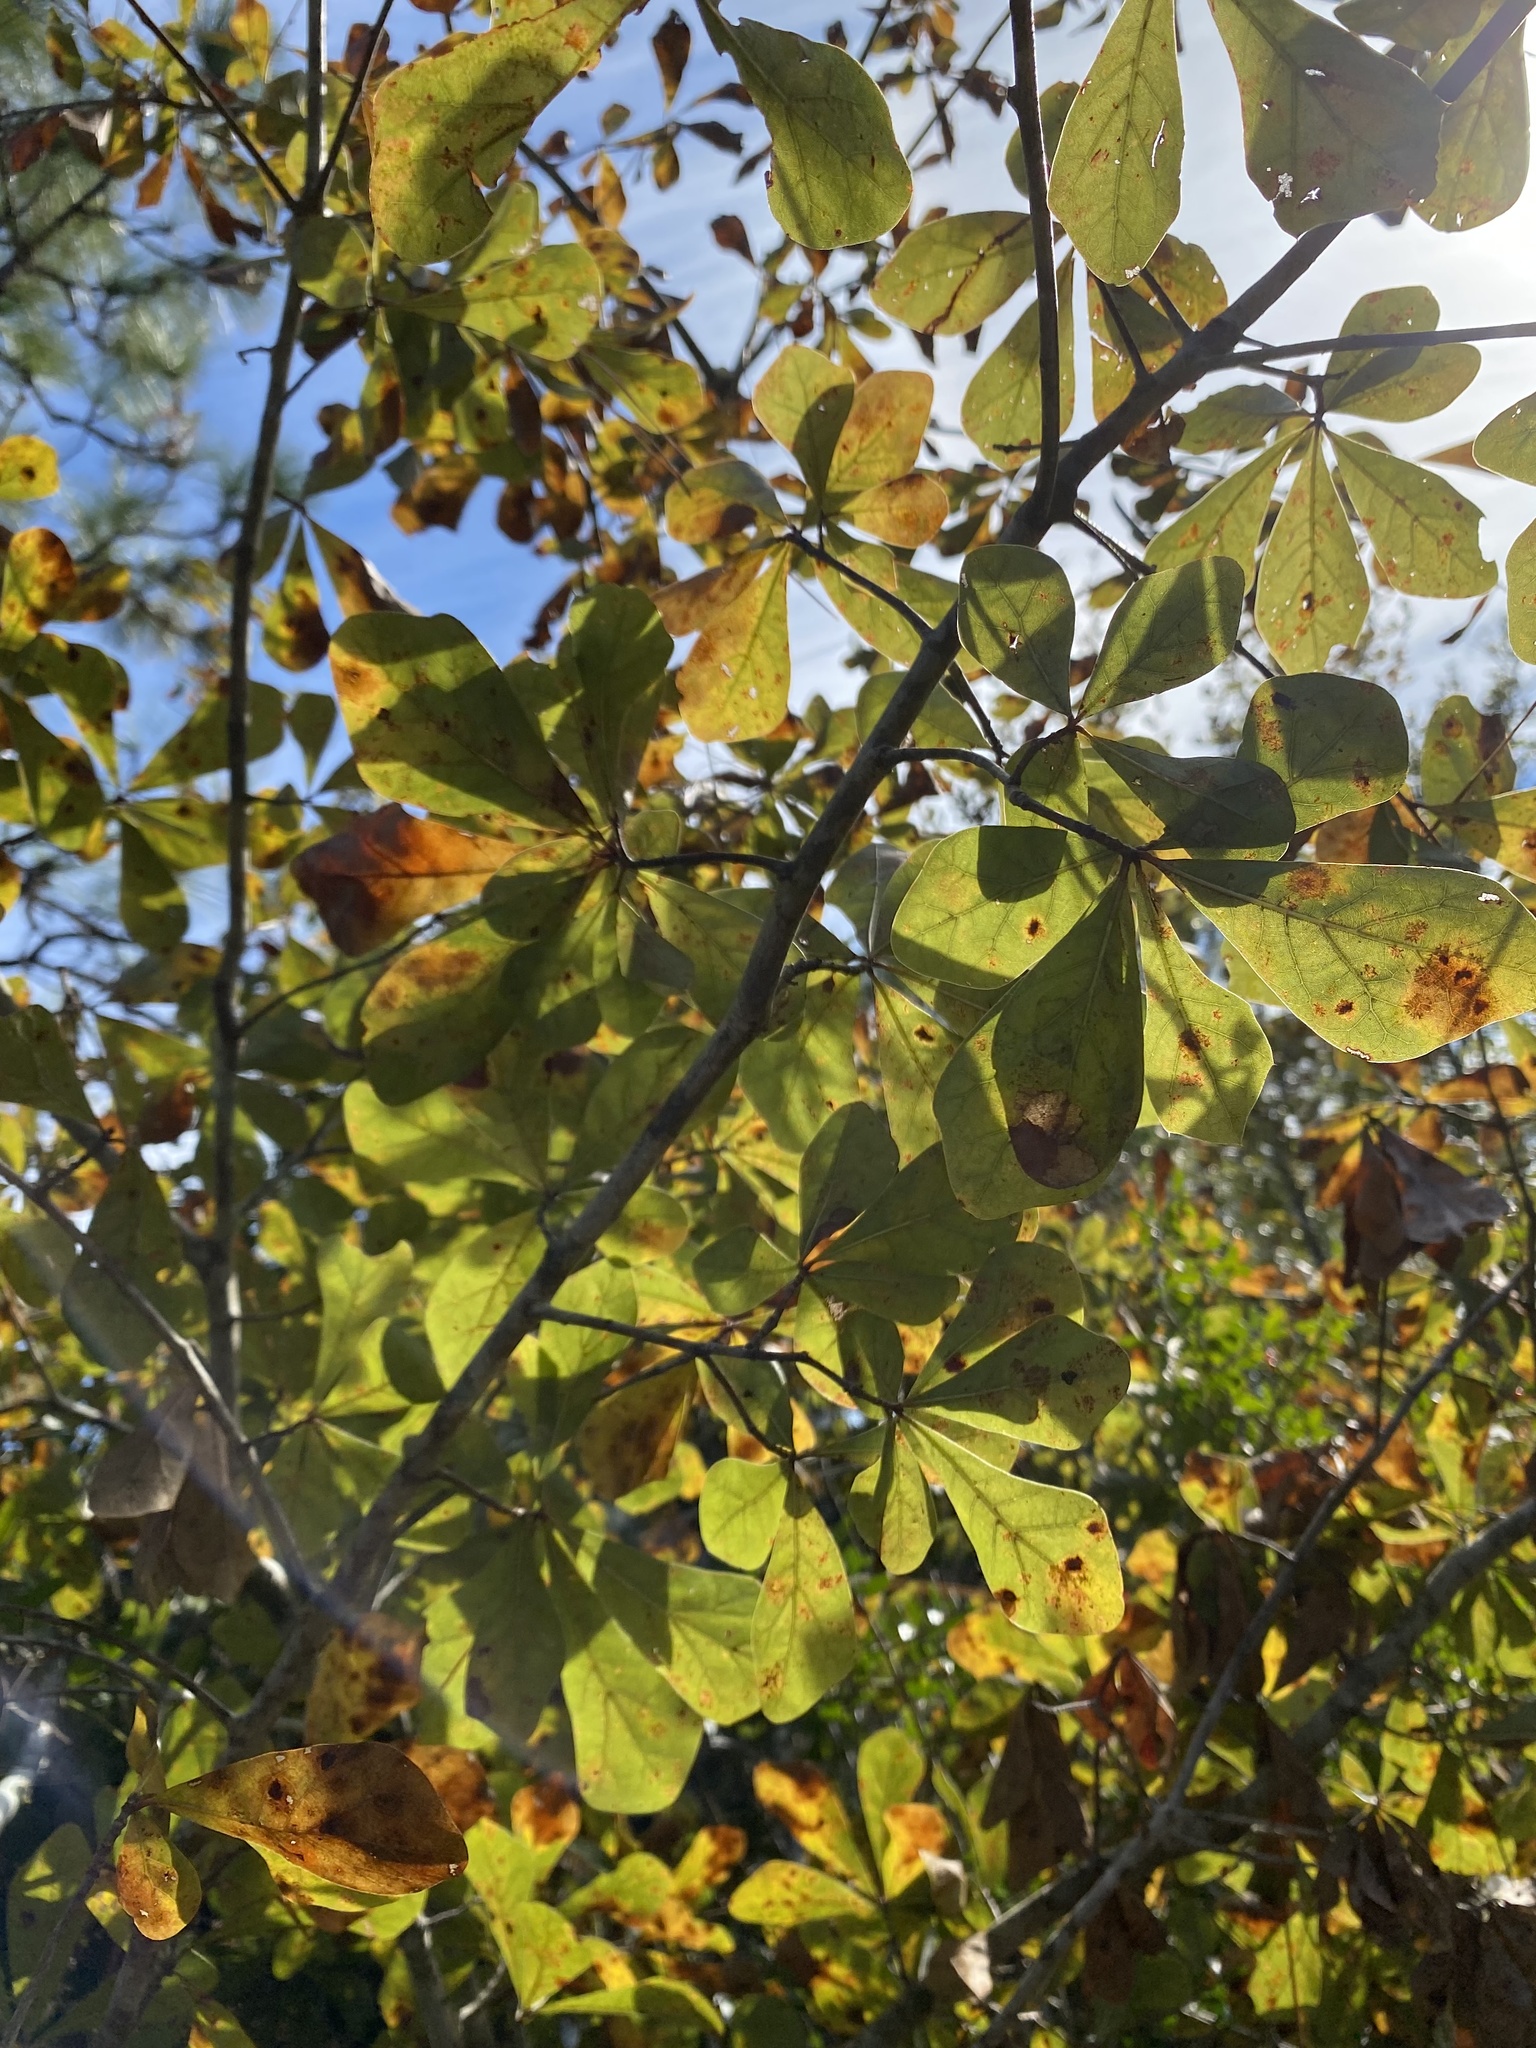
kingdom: Plantae
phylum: Tracheophyta
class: Magnoliopsida
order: Fagales
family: Fagaceae
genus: Quercus
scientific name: Quercus nigra
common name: Water oak
